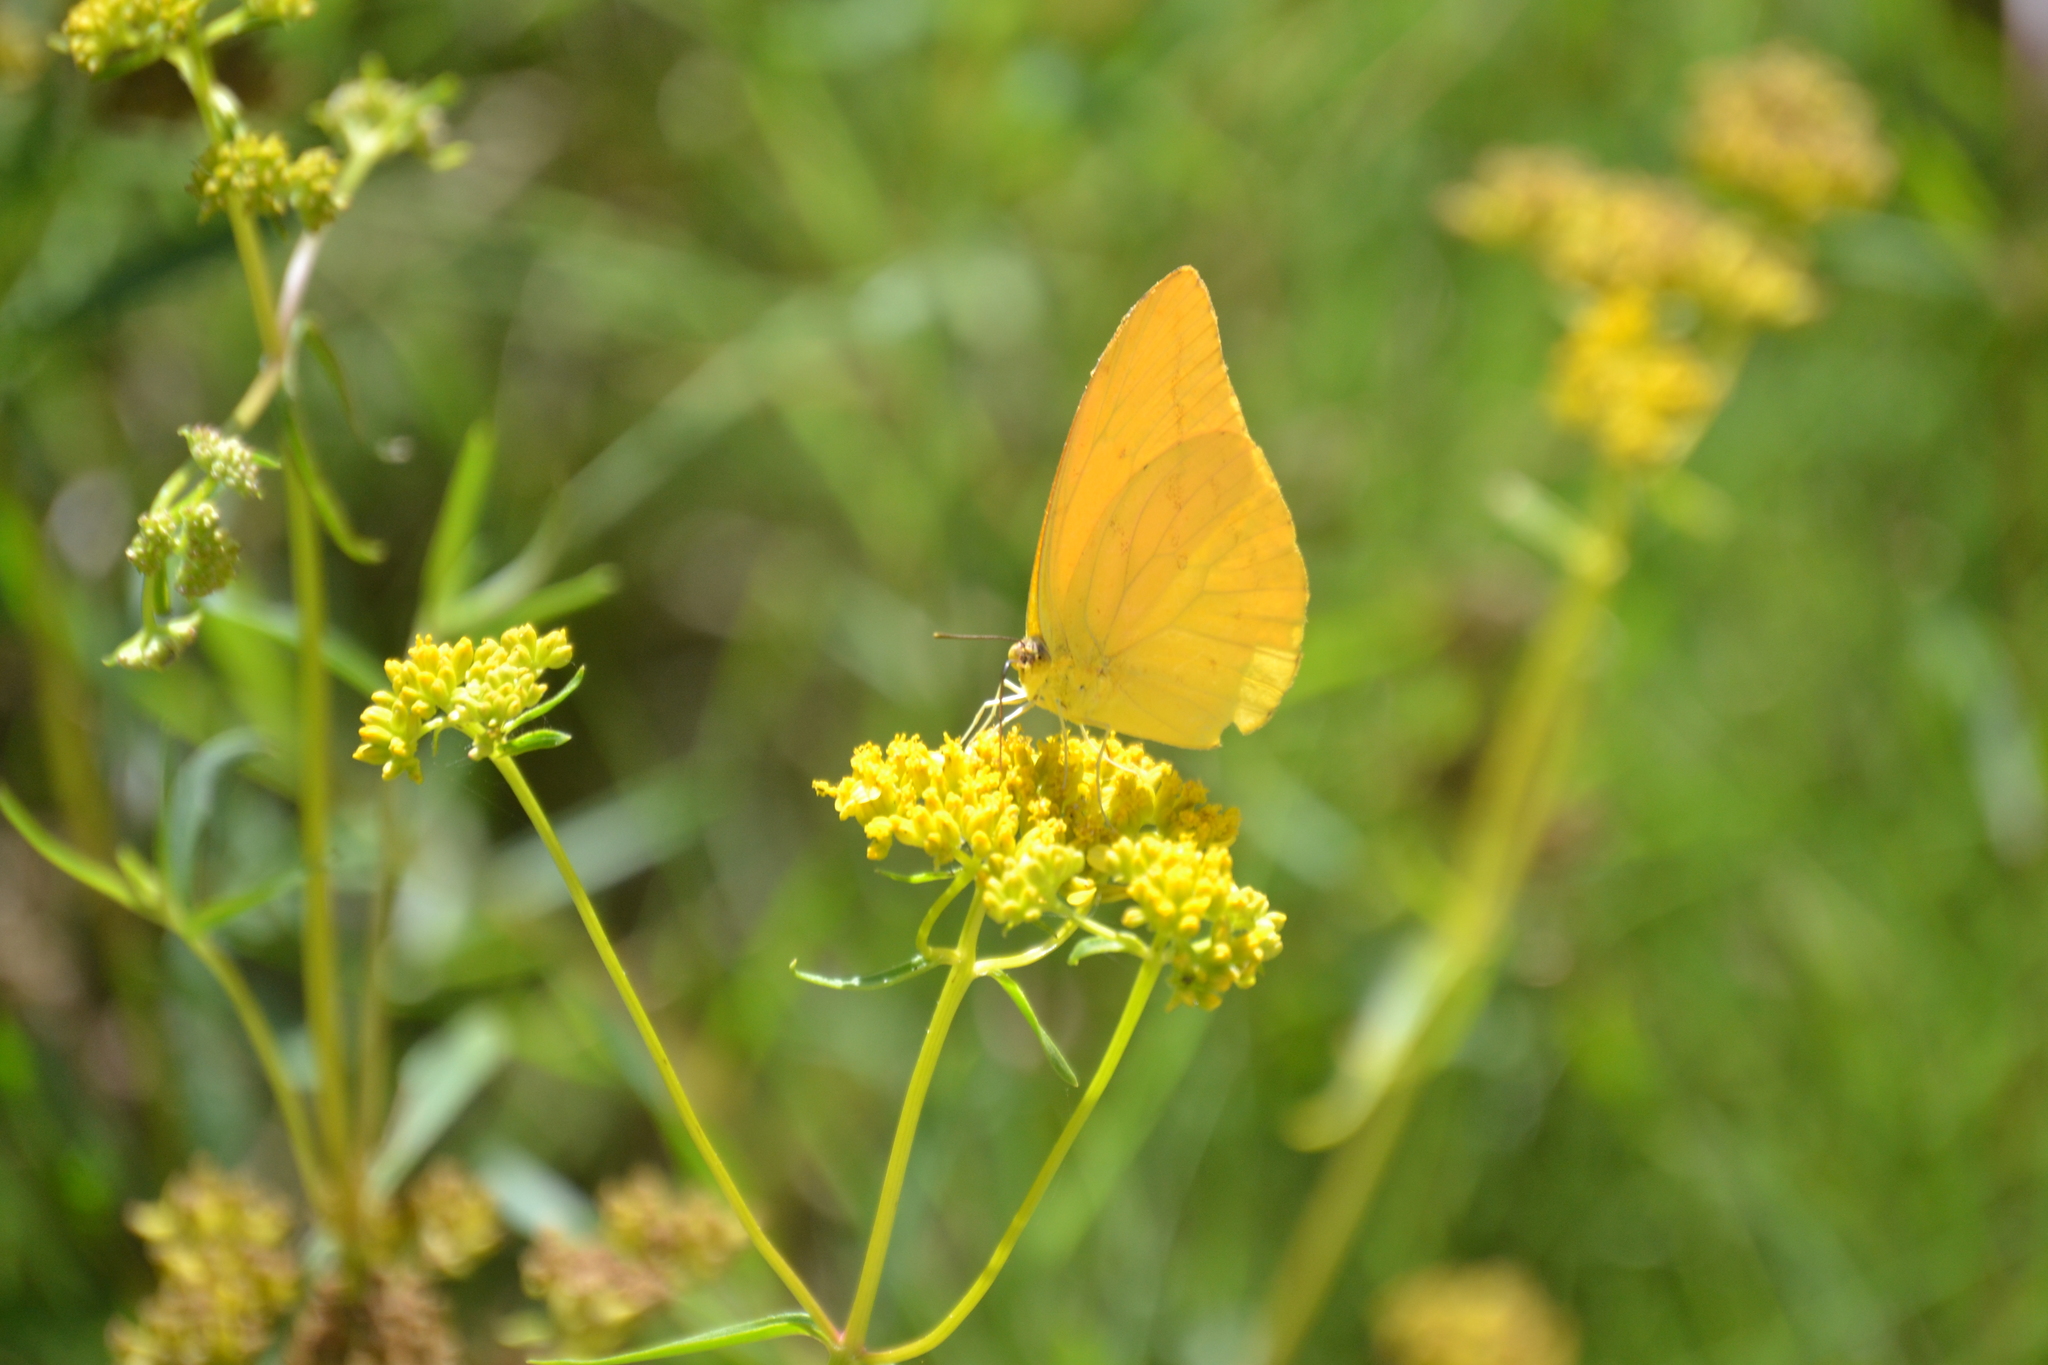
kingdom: Animalia
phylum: Arthropoda
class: Insecta
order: Lepidoptera
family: Pieridae
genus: Phoebis
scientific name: Phoebis agarithe
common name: Large orange sulphur
